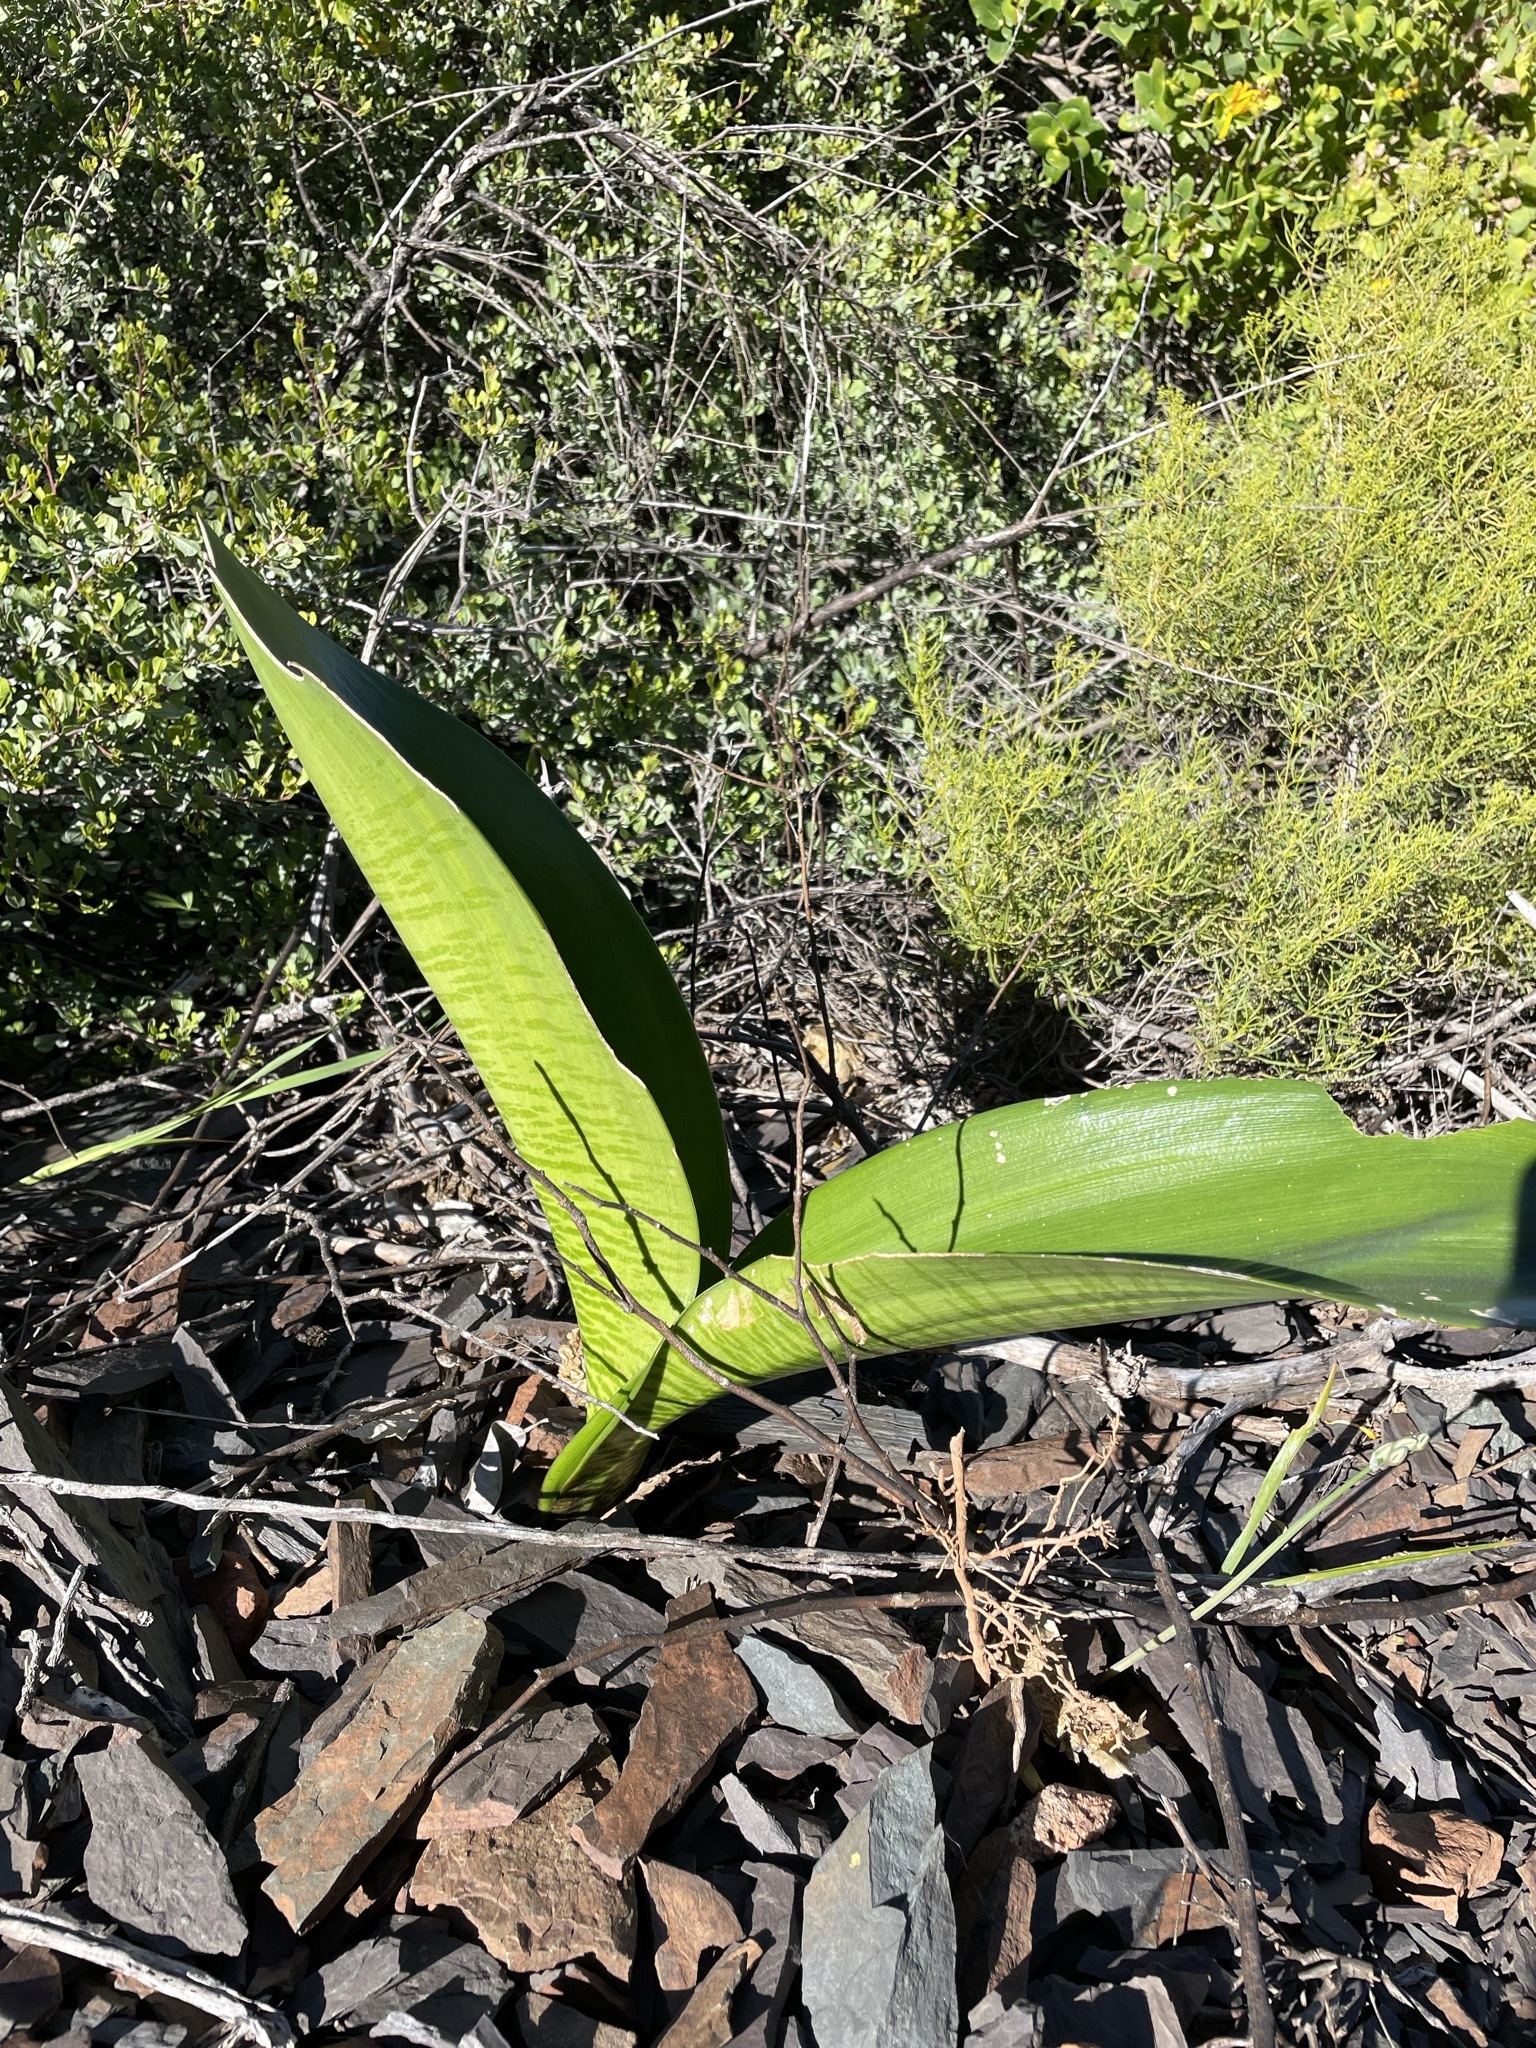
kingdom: Plantae
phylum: Tracheophyta
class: Liliopsida
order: Asparagales
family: Amaryllidaceae
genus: Haemanthus
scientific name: Haemanthus coccineus
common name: Cape-tulip
